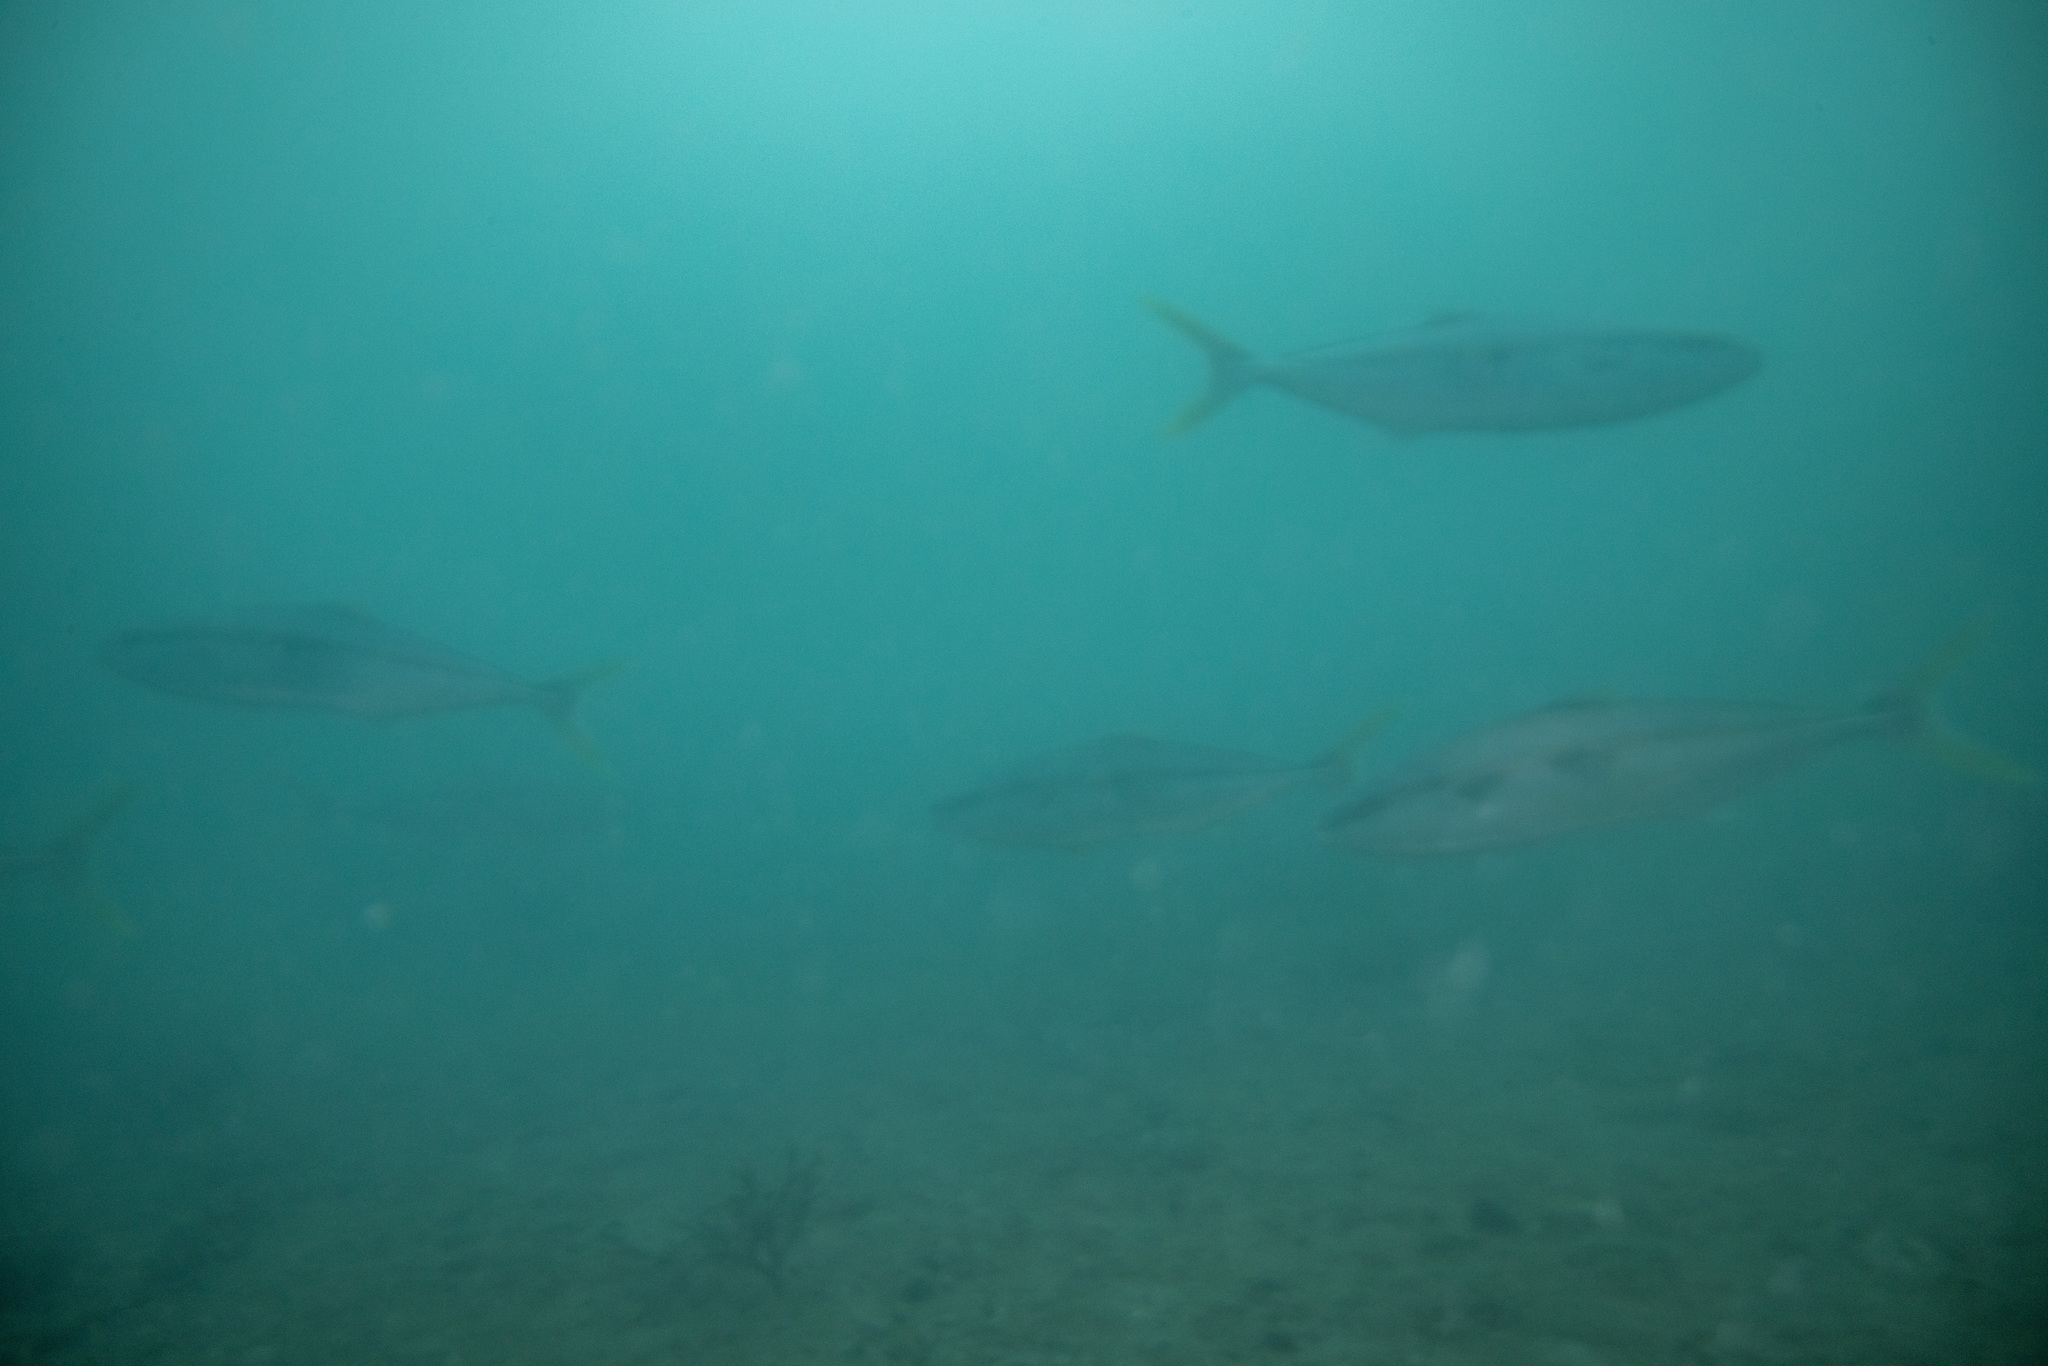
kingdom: Animalia
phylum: Chordata
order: Perciformes
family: Carangidae
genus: Seriola
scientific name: Seriola lalandi
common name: Yellowtail kingfish
